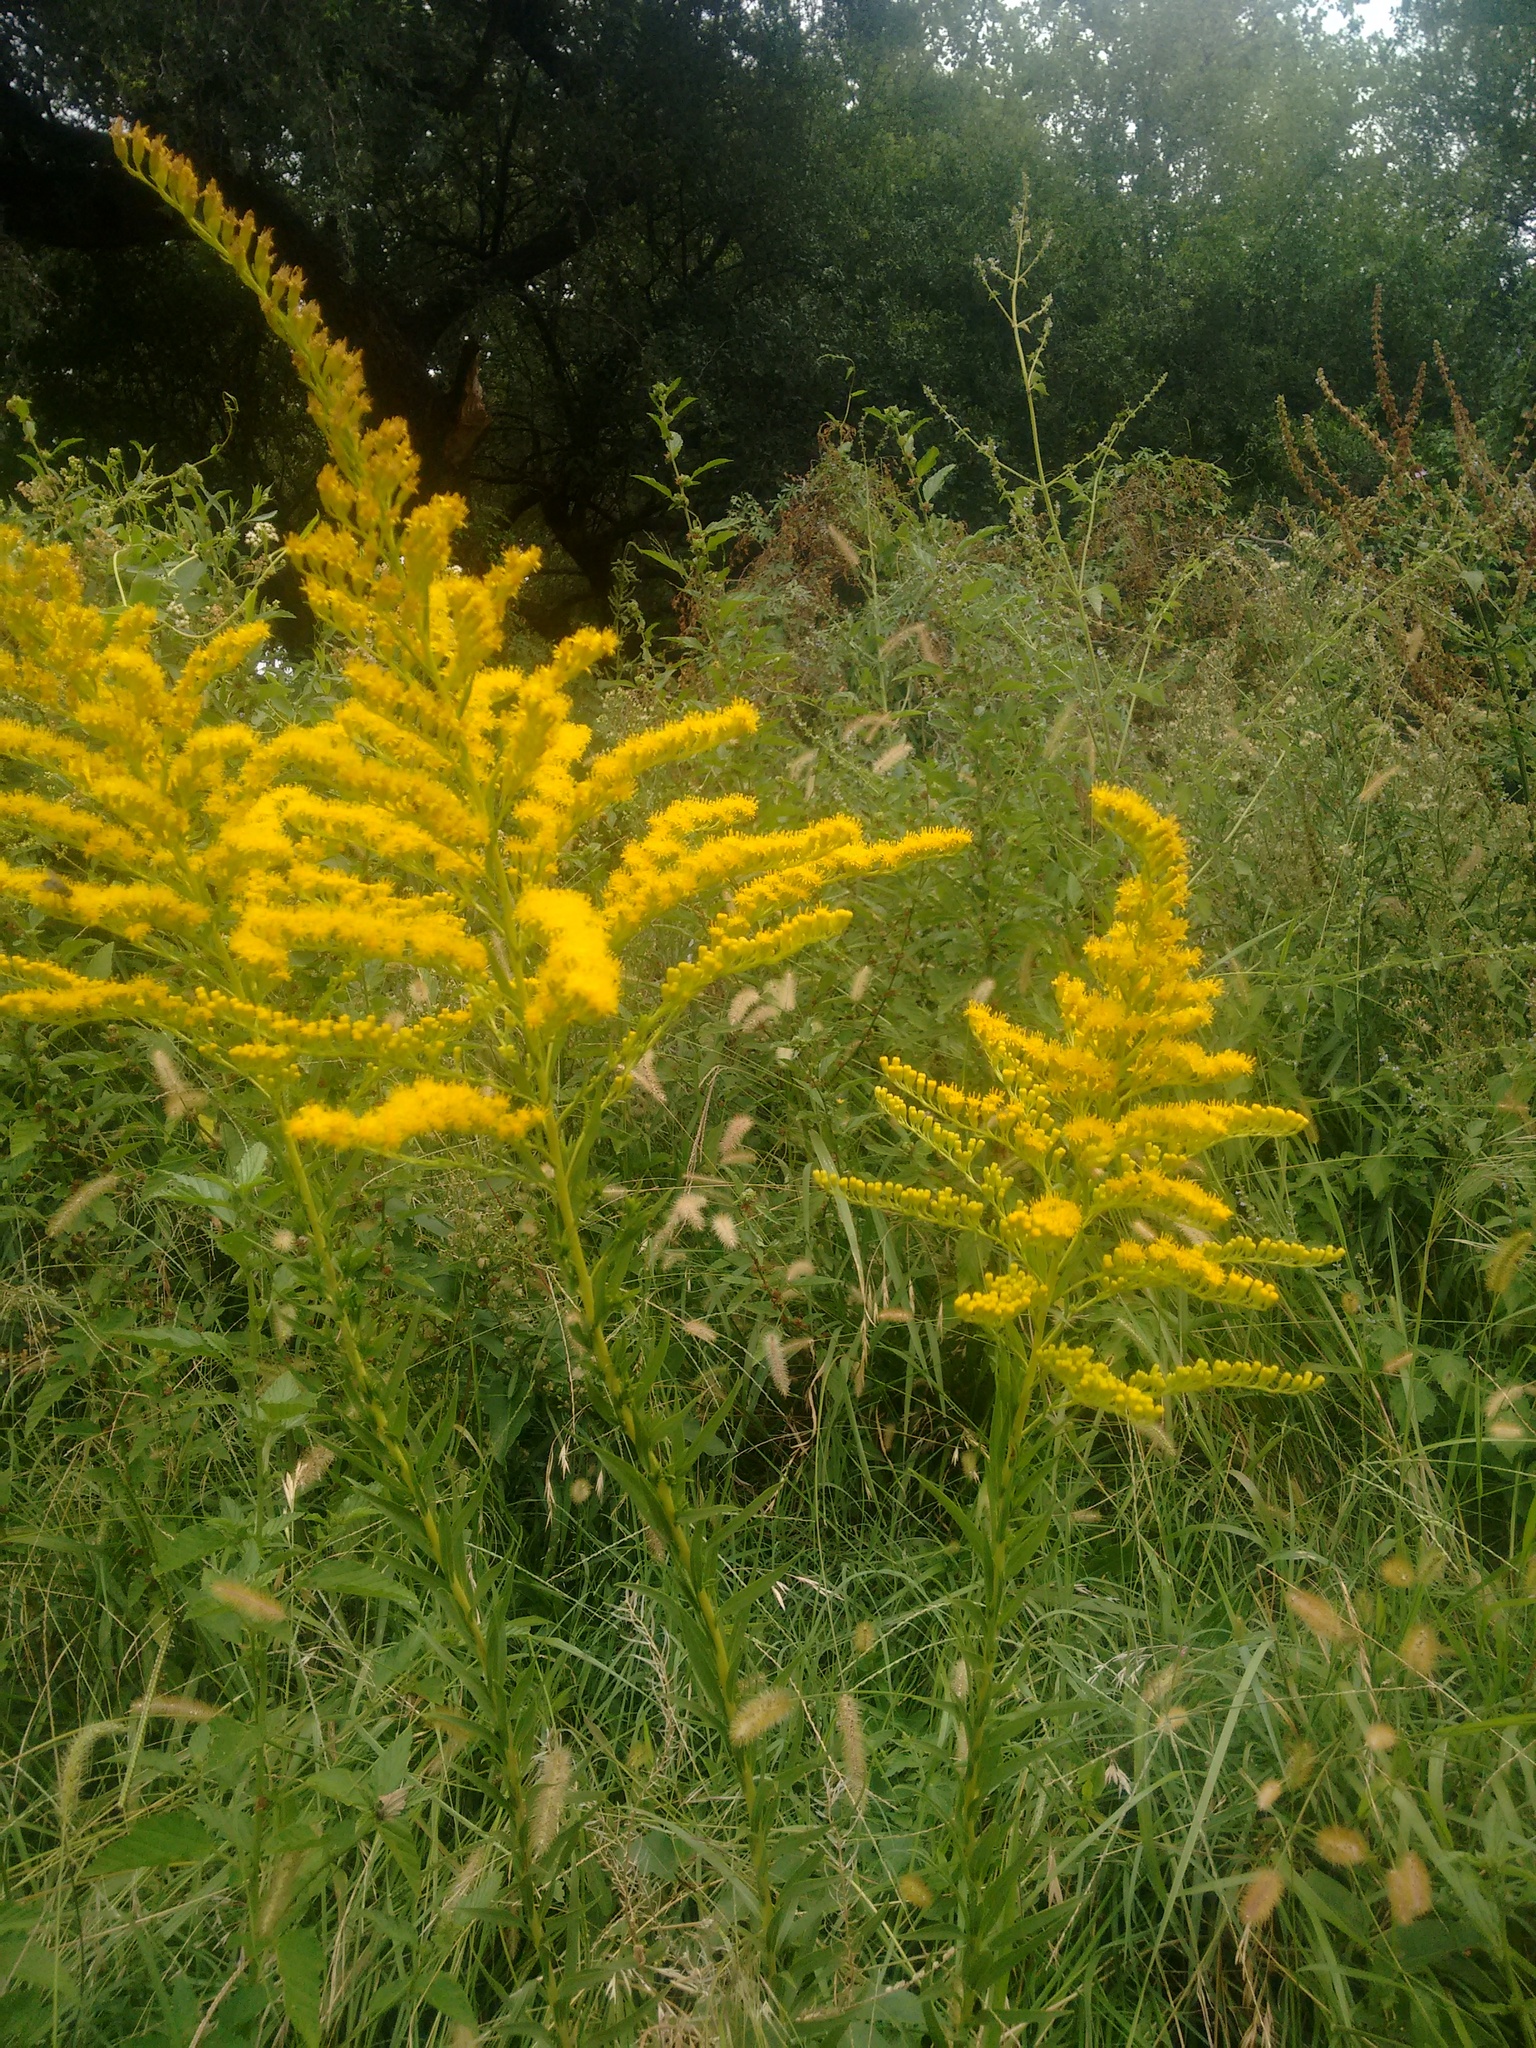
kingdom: Plantae
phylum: Tracheophyta
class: Magnoliopsida
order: Asterales
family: Asteraceae
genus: Solidago
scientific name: Solidago chilensis
